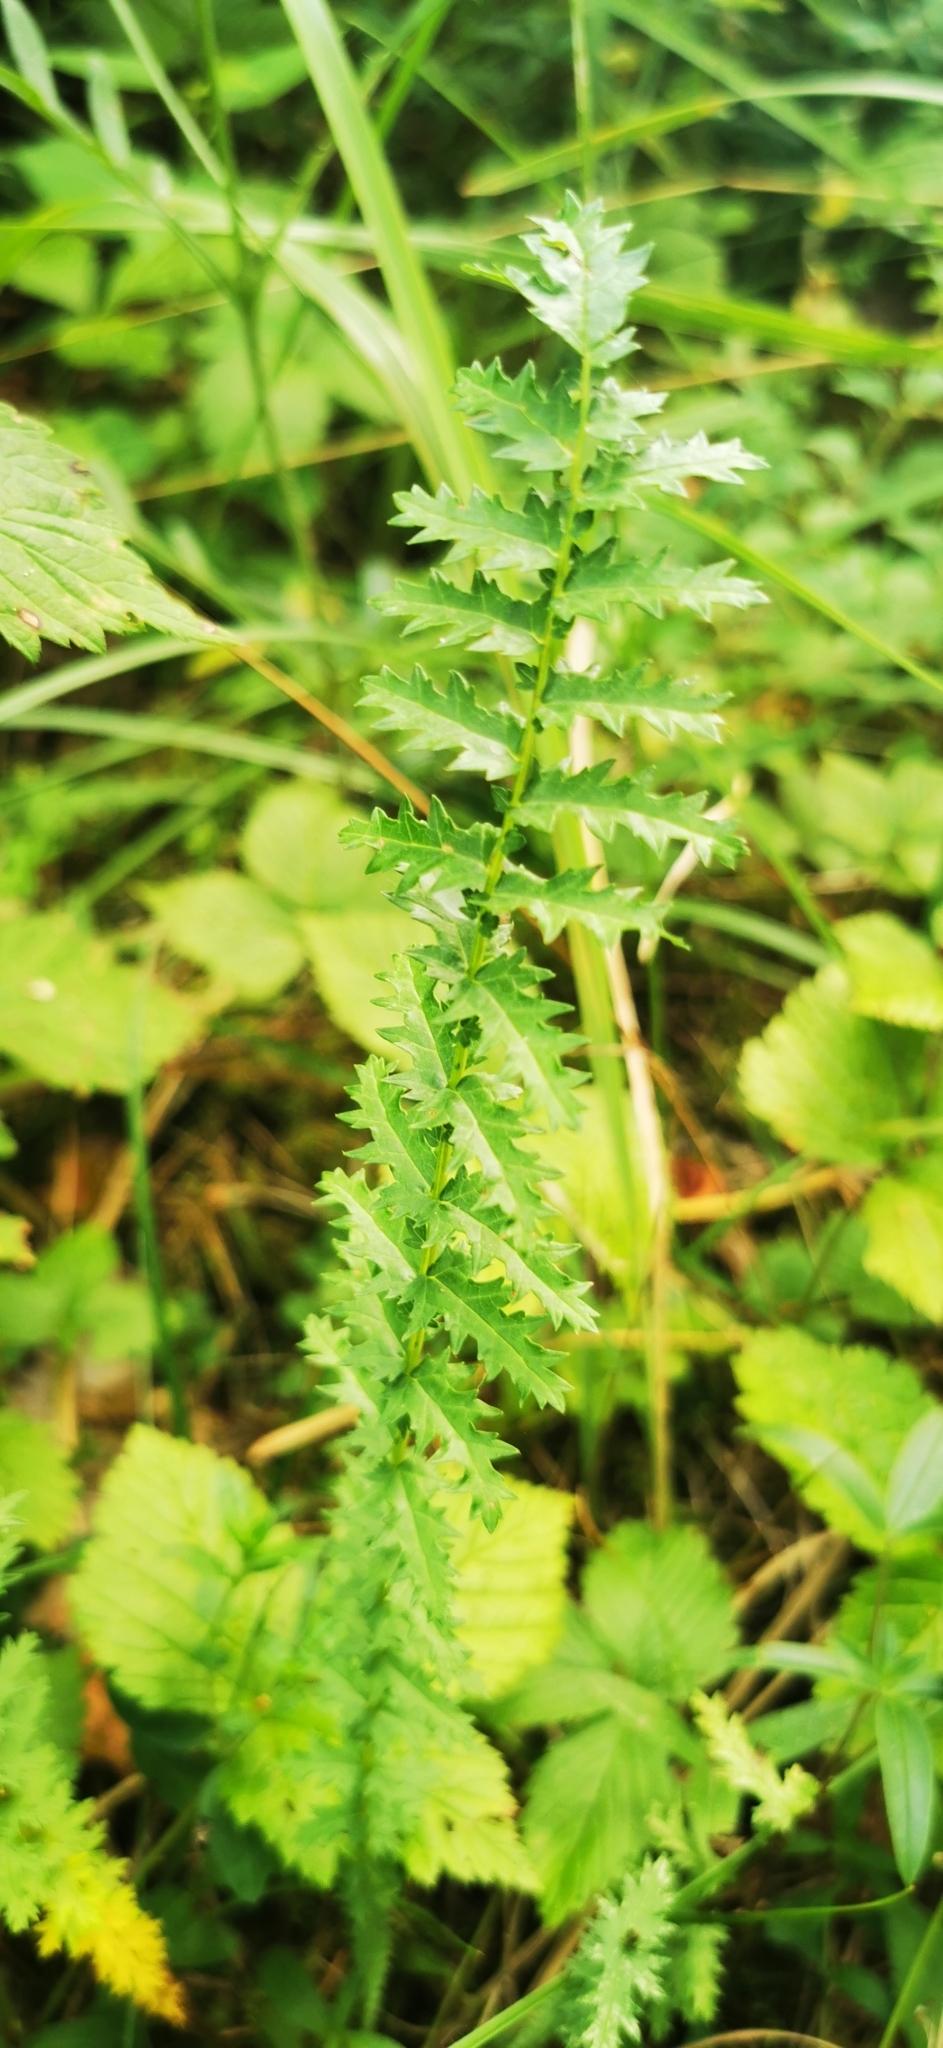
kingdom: Plantae
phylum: Tracheophyta
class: Magnoliopsida
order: Rosales
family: Rosaceae
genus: Filipendula
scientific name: Filipendula vulgaris
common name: Dropwort
